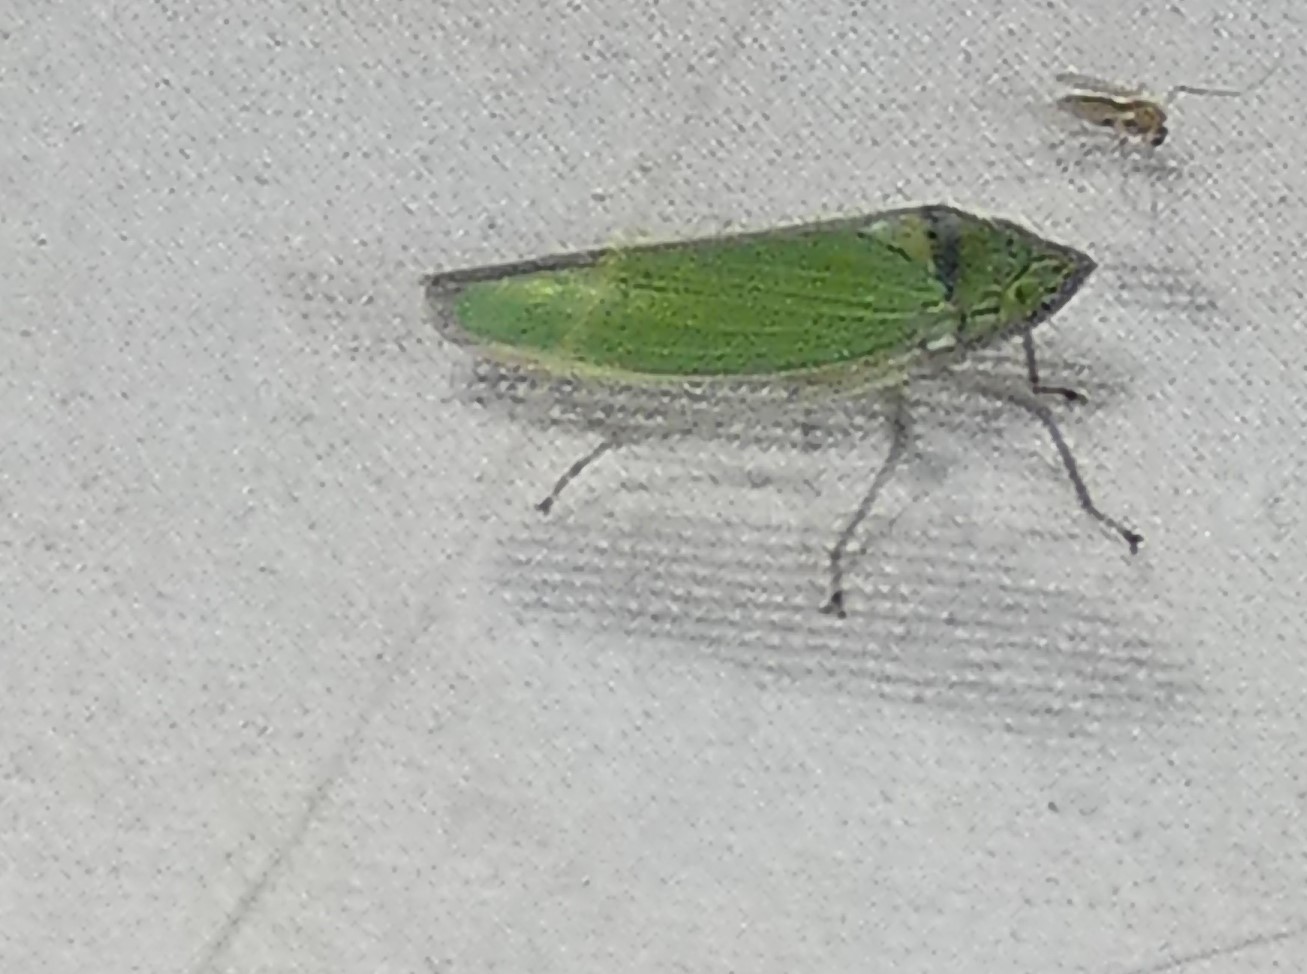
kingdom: Animalia
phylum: Arthropoda
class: Insecta
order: Hemiptera
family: Cicadellidae
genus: Draeculacephala
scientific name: Draeculacephala inscripta
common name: Leafhopper
